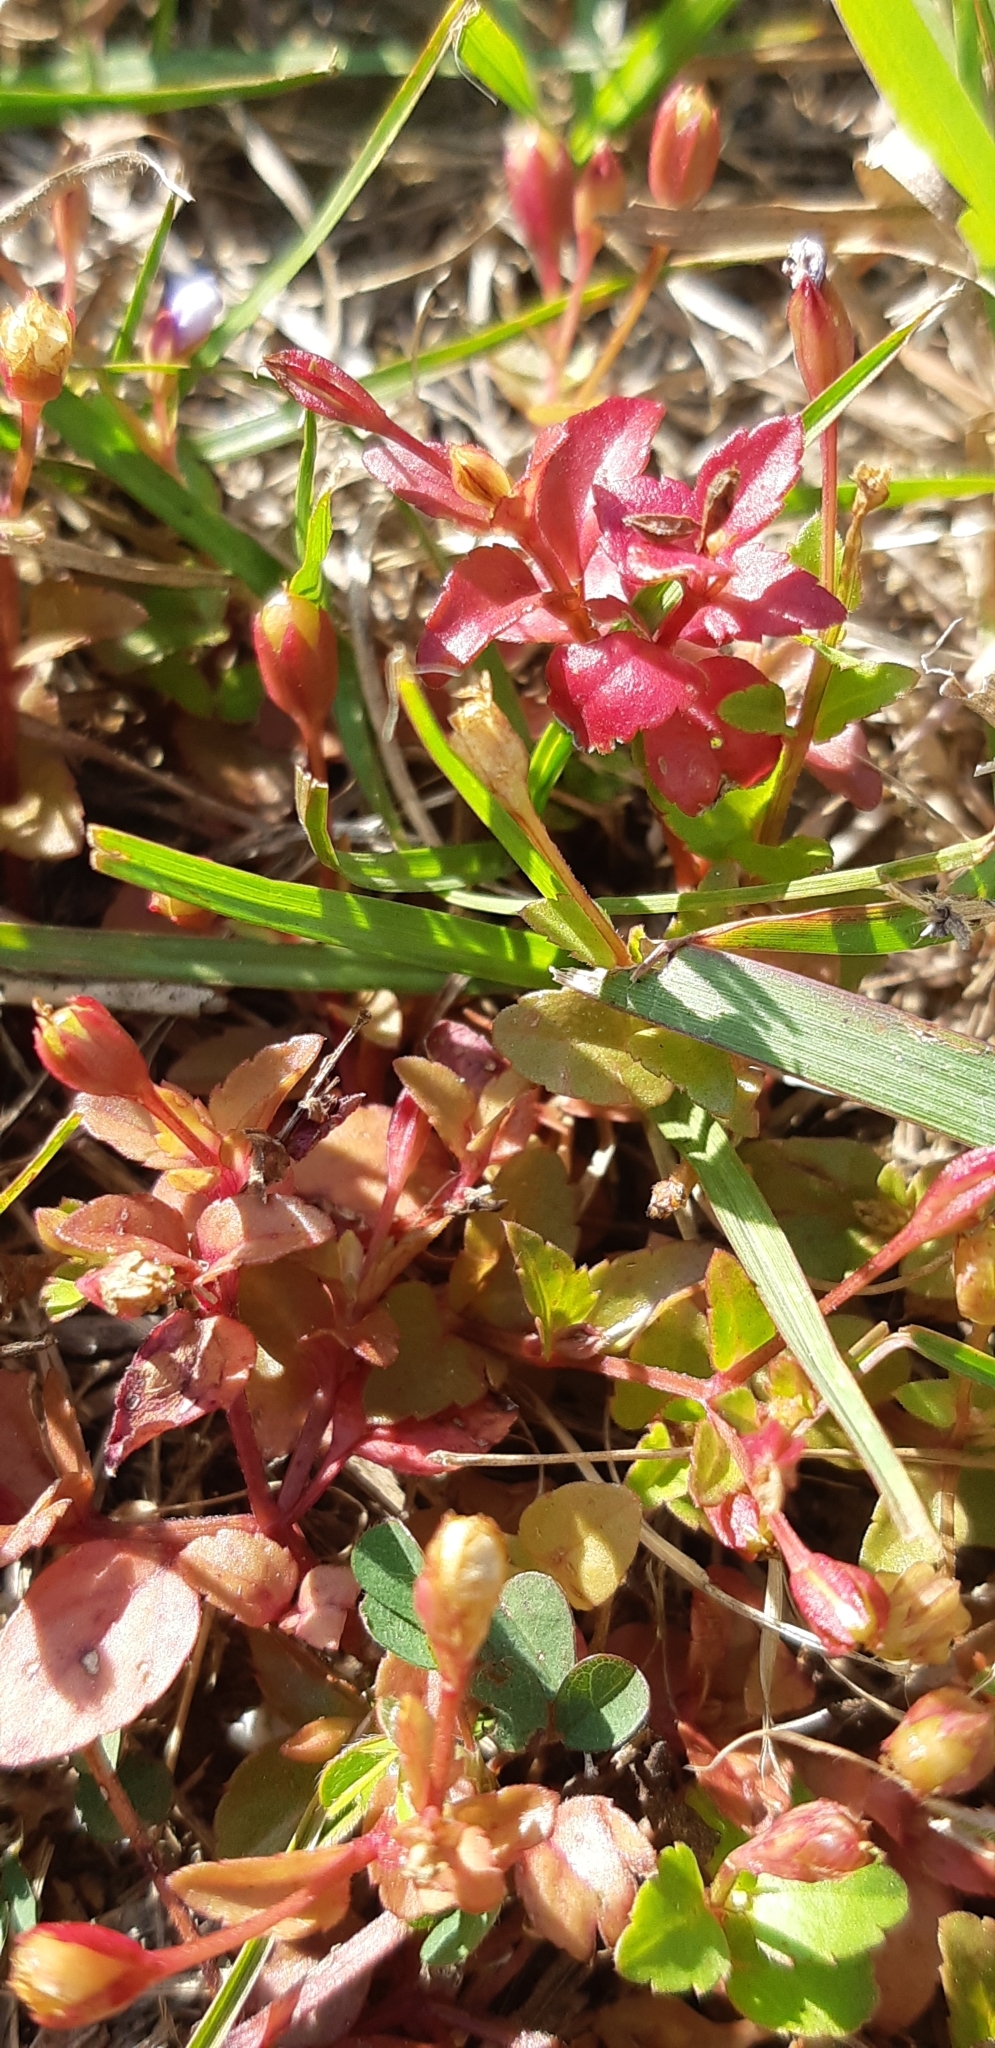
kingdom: Plantae
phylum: Tracheophyta
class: Magnoliopsida
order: Lamiales
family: Linderniaceae
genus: Torenia
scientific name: Torenia crustacea
